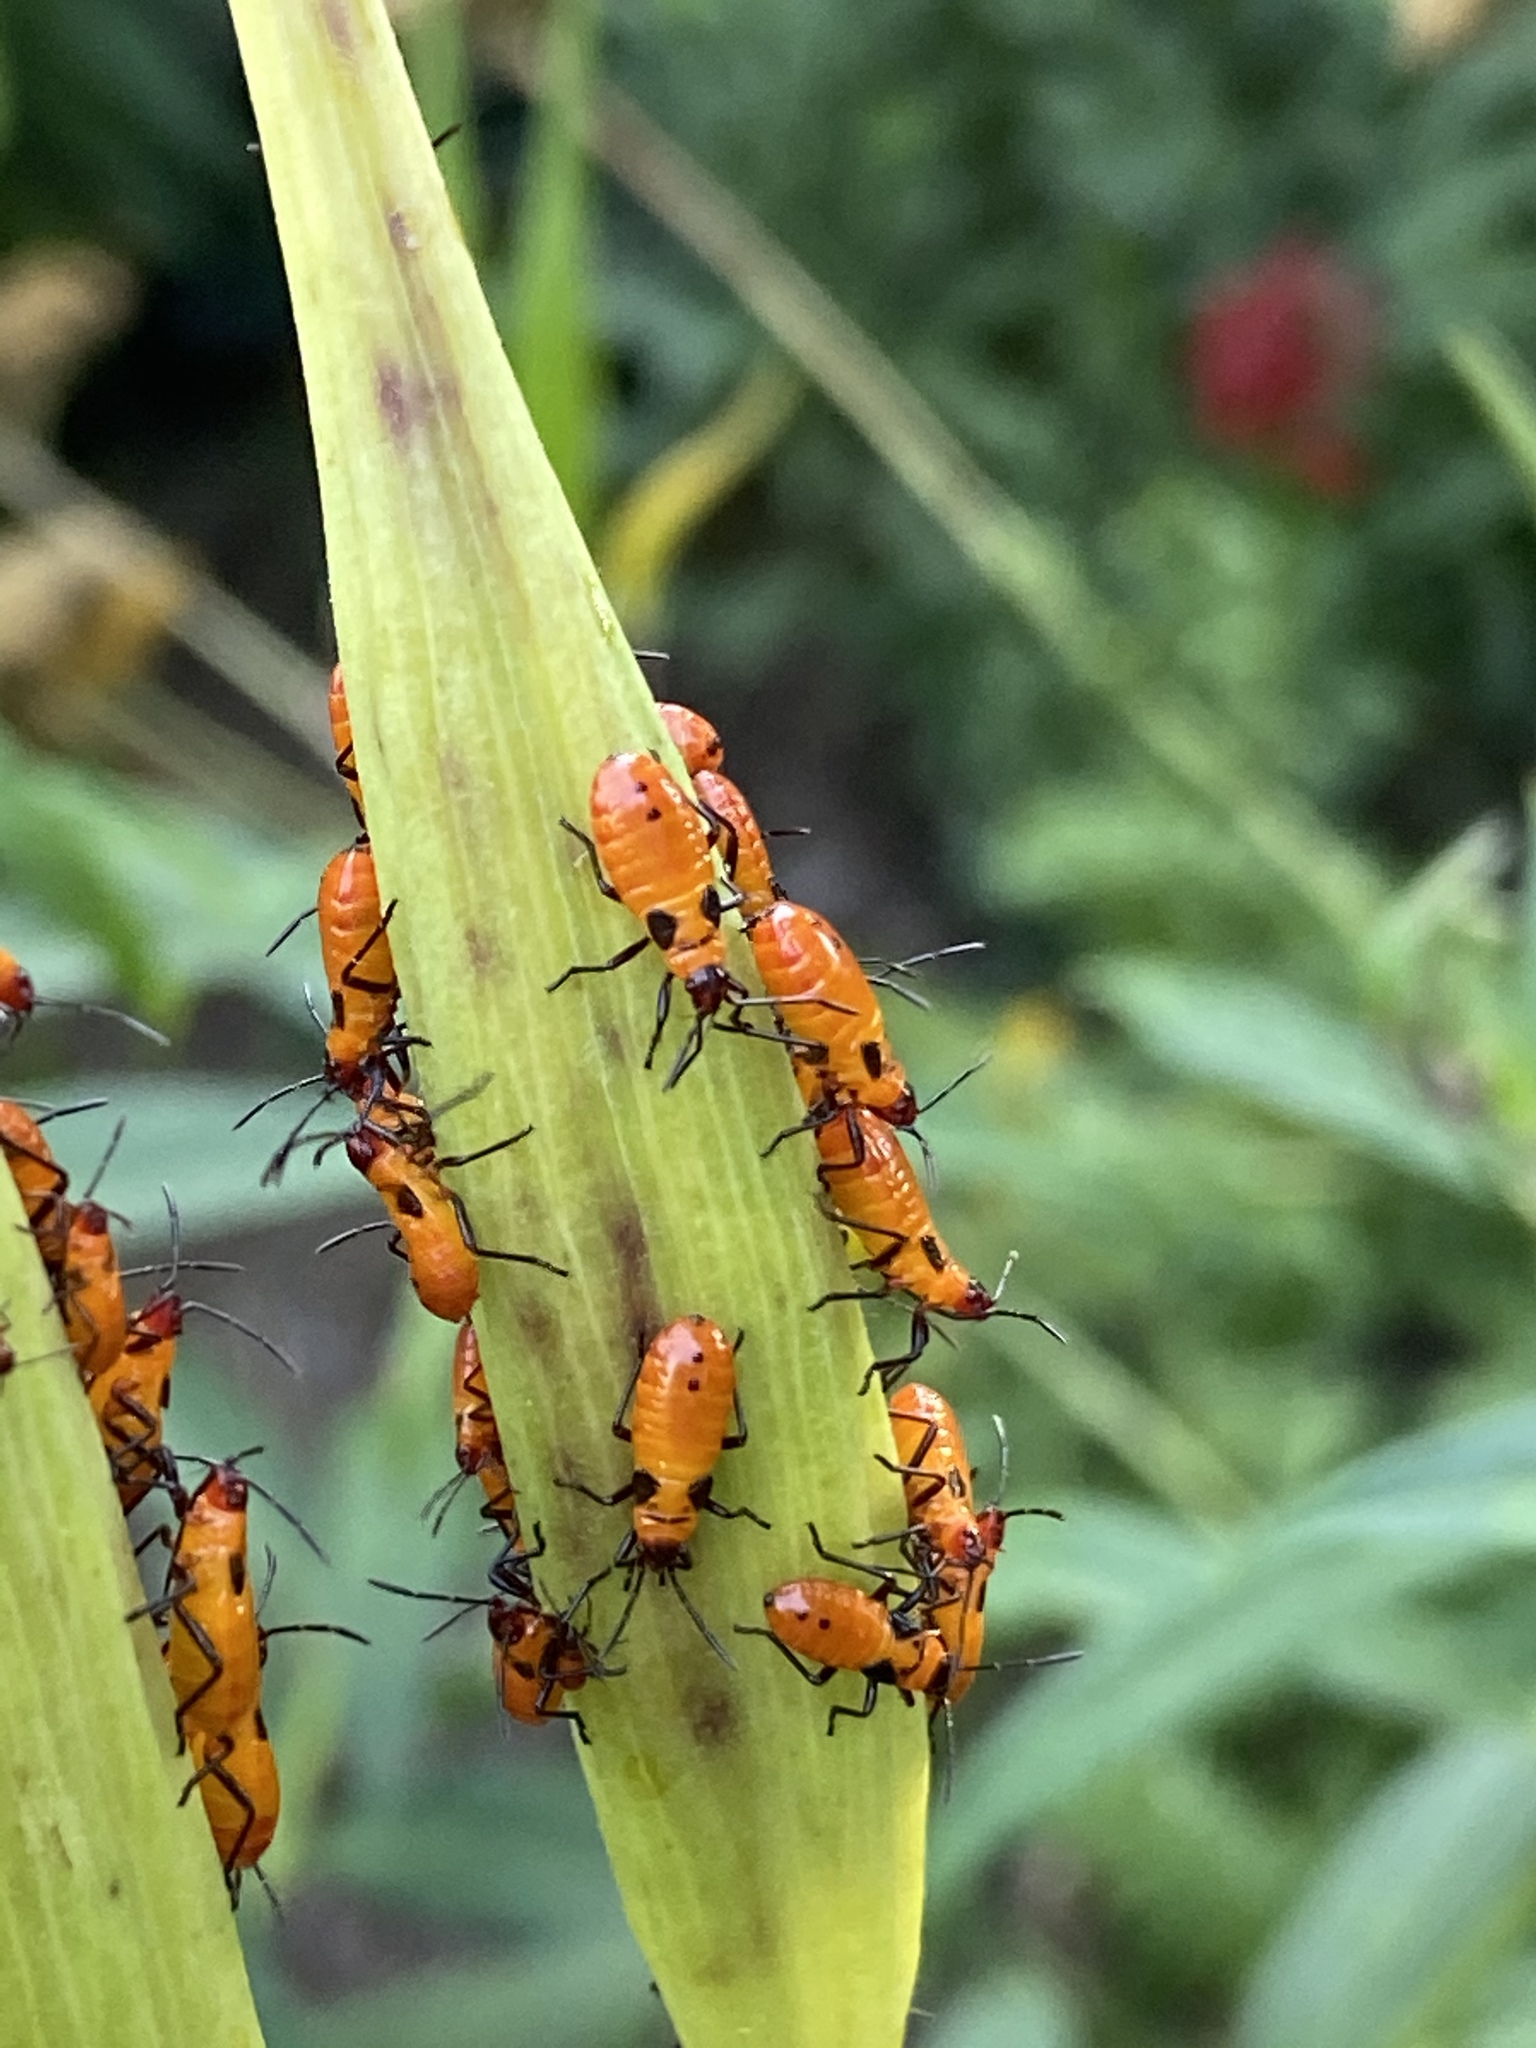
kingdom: Animalia
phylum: Arthropoda
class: Insecta
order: Hemiptera
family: Lygaeidae
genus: Oncopeltus
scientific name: Oncopeltus fasciatus
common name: Large milkweed bug
